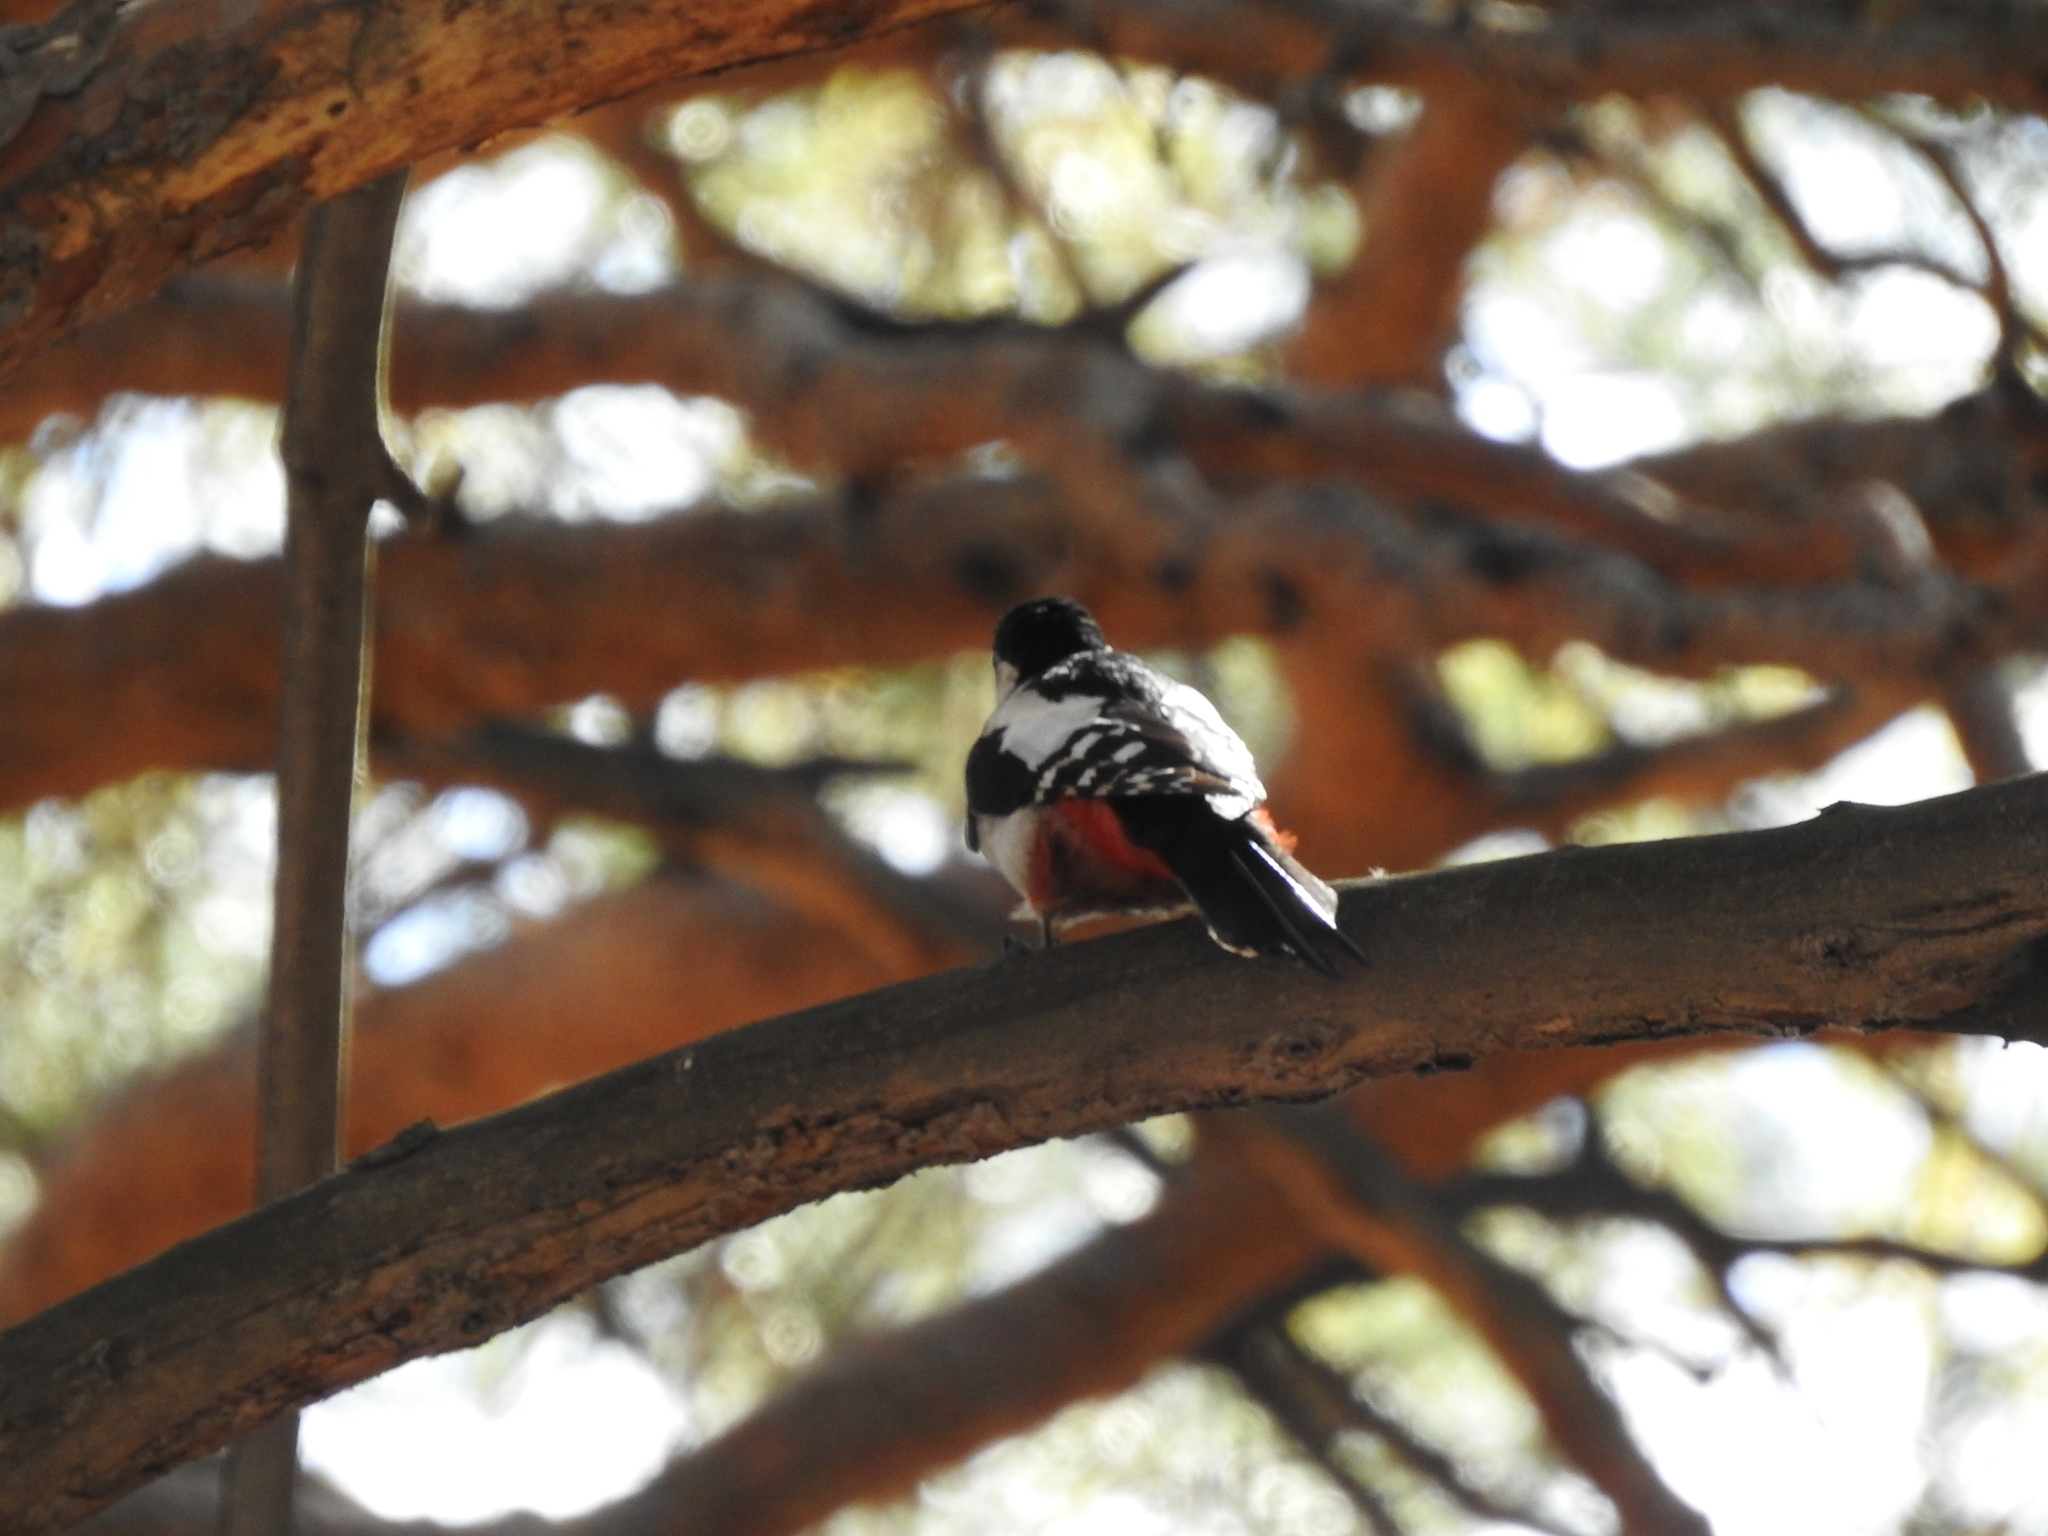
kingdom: Animalia
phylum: Chordata
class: Aves
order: Piciformes
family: Picidae
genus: Dendrocopos
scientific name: Dendrocopos major
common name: Great spotted woodpecker
